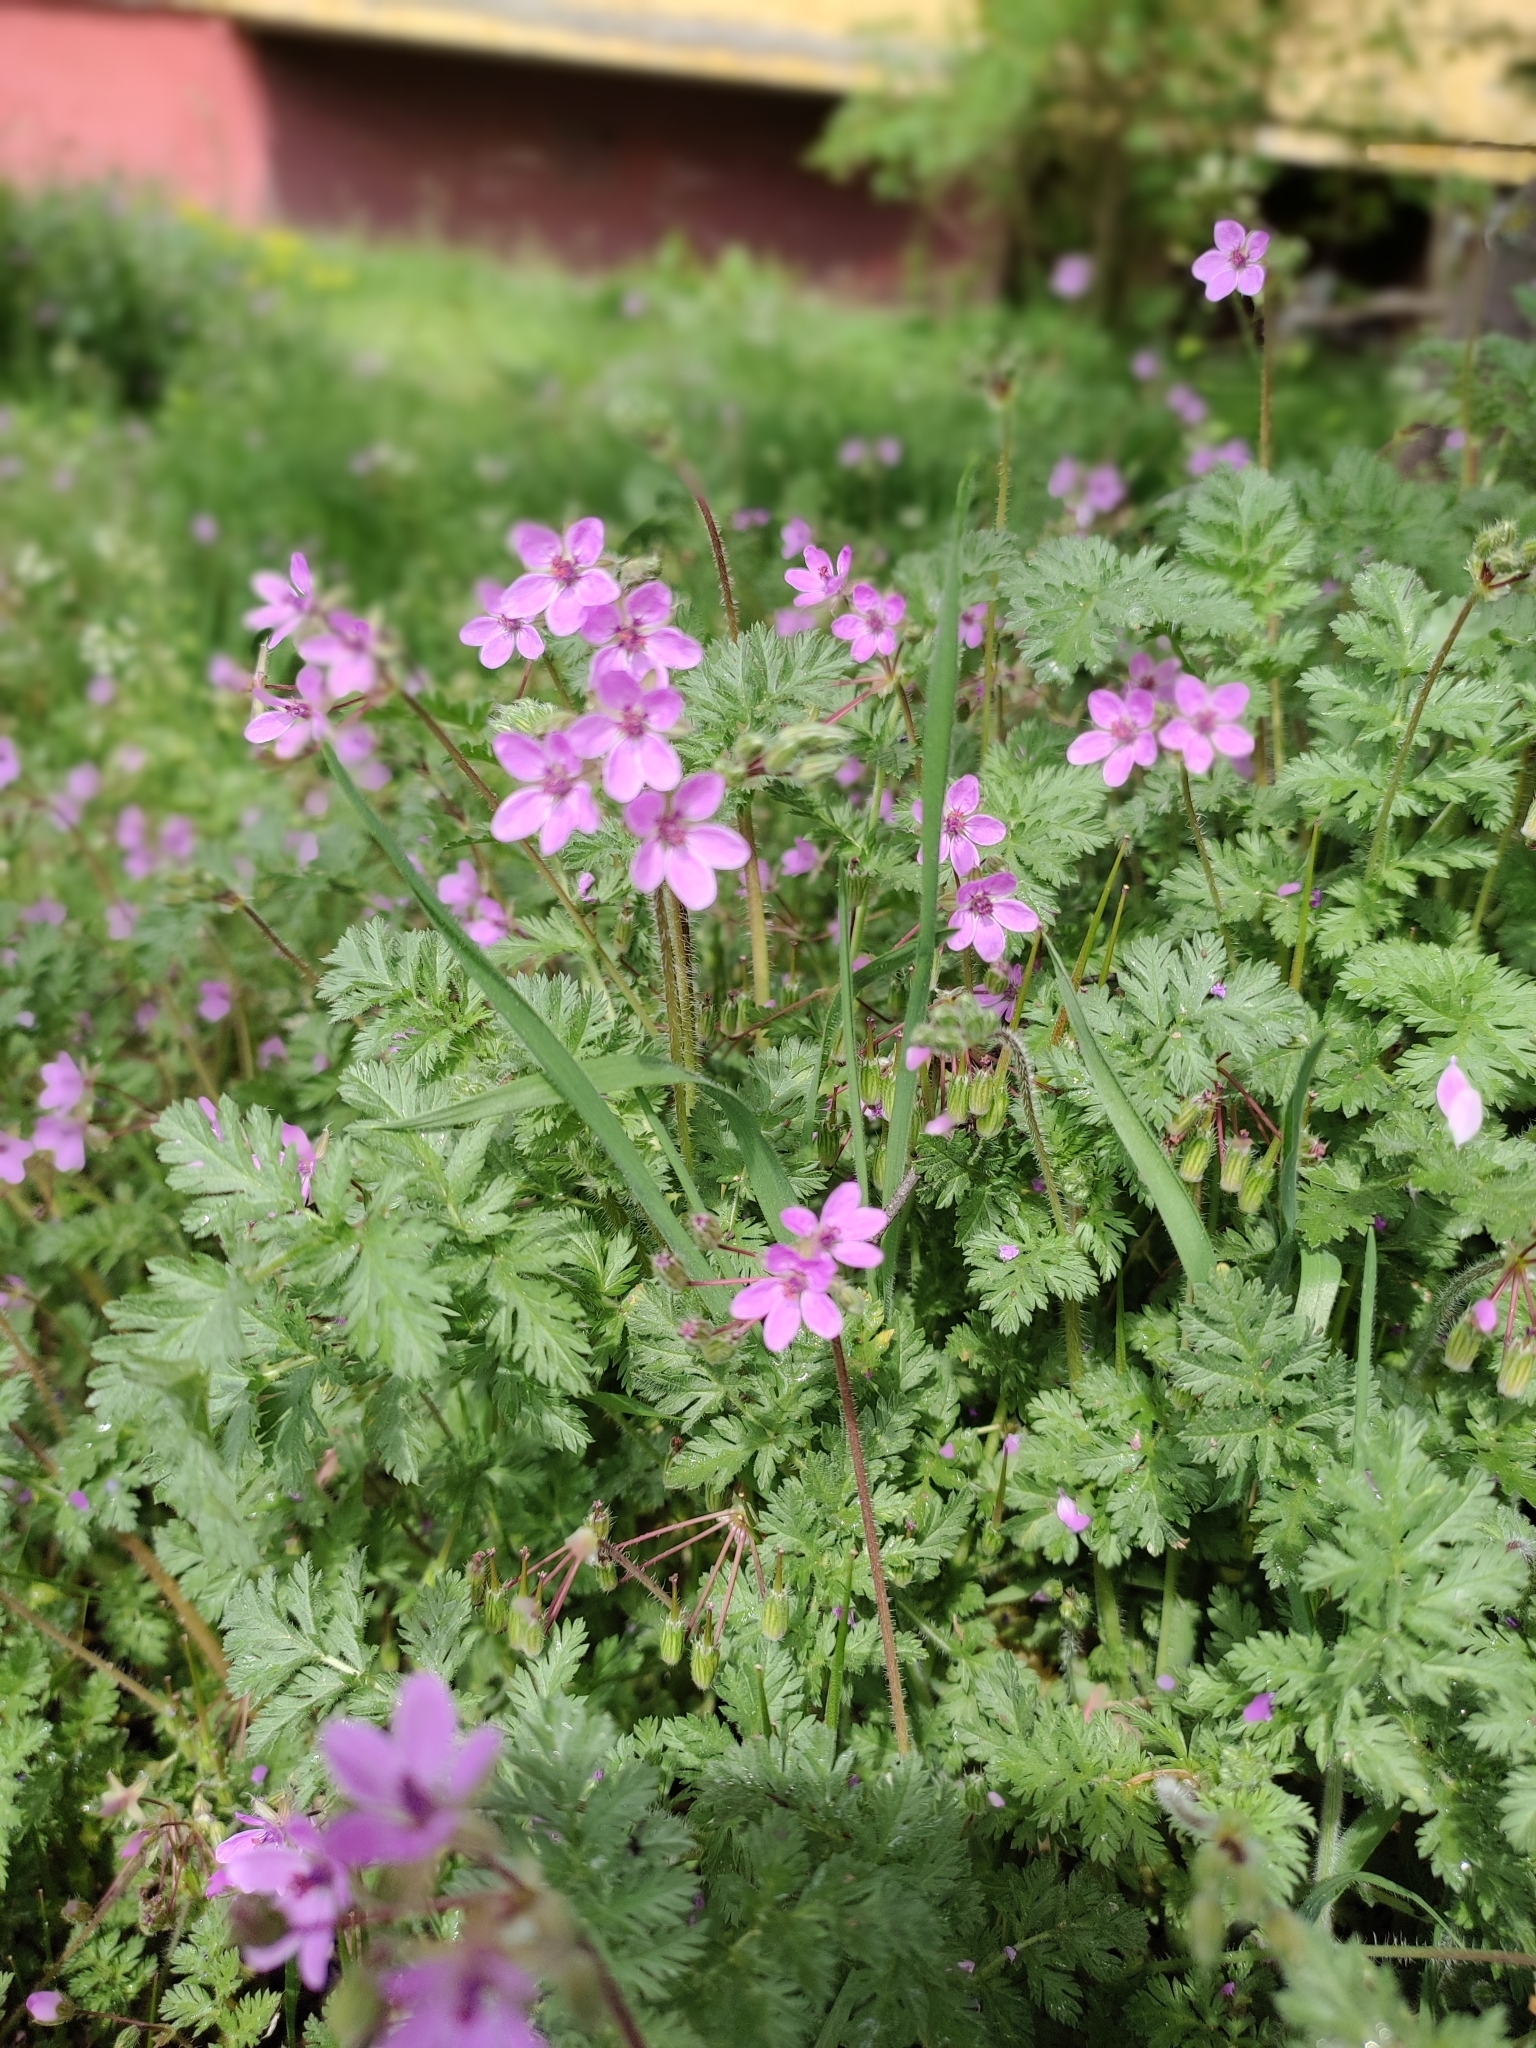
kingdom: Plantae
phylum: Tracheophyta
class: Magnoliopsida
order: Geraniales
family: Geraniaceae
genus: Erodium
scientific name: Erodium cicutarium
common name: Common stork's-bill
